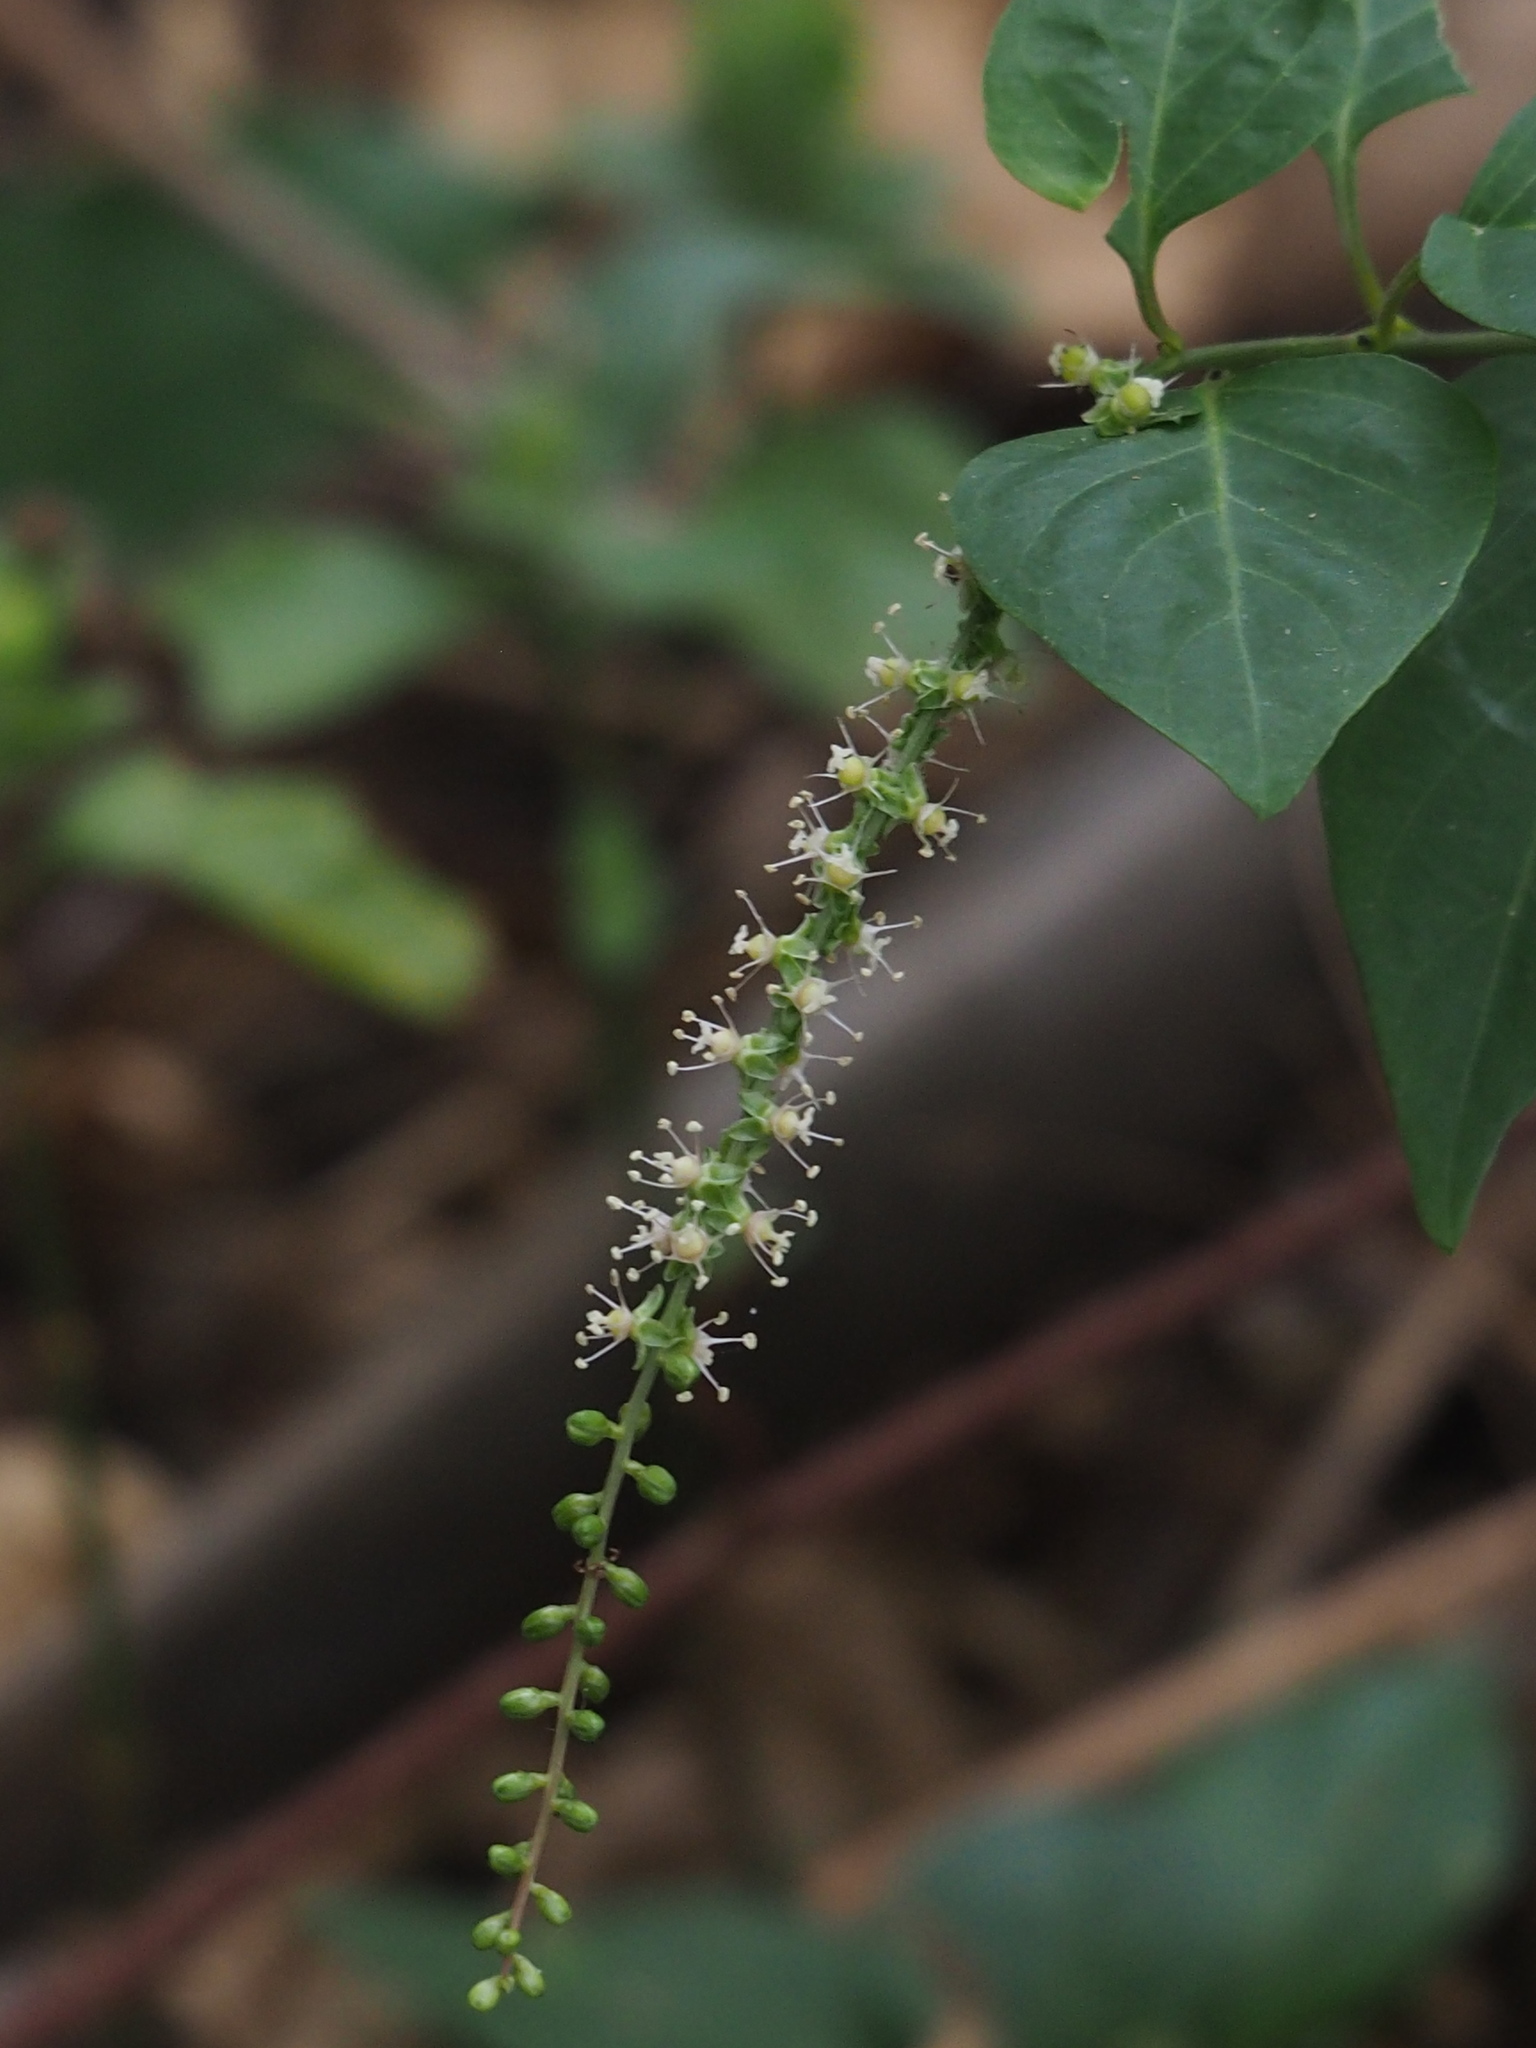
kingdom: Plantae
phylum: Tracheophyta
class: Magnoliopsida
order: Caryophyllales
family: Amaranthaceae
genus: Deeringia
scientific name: Deeringia amaranthoides
